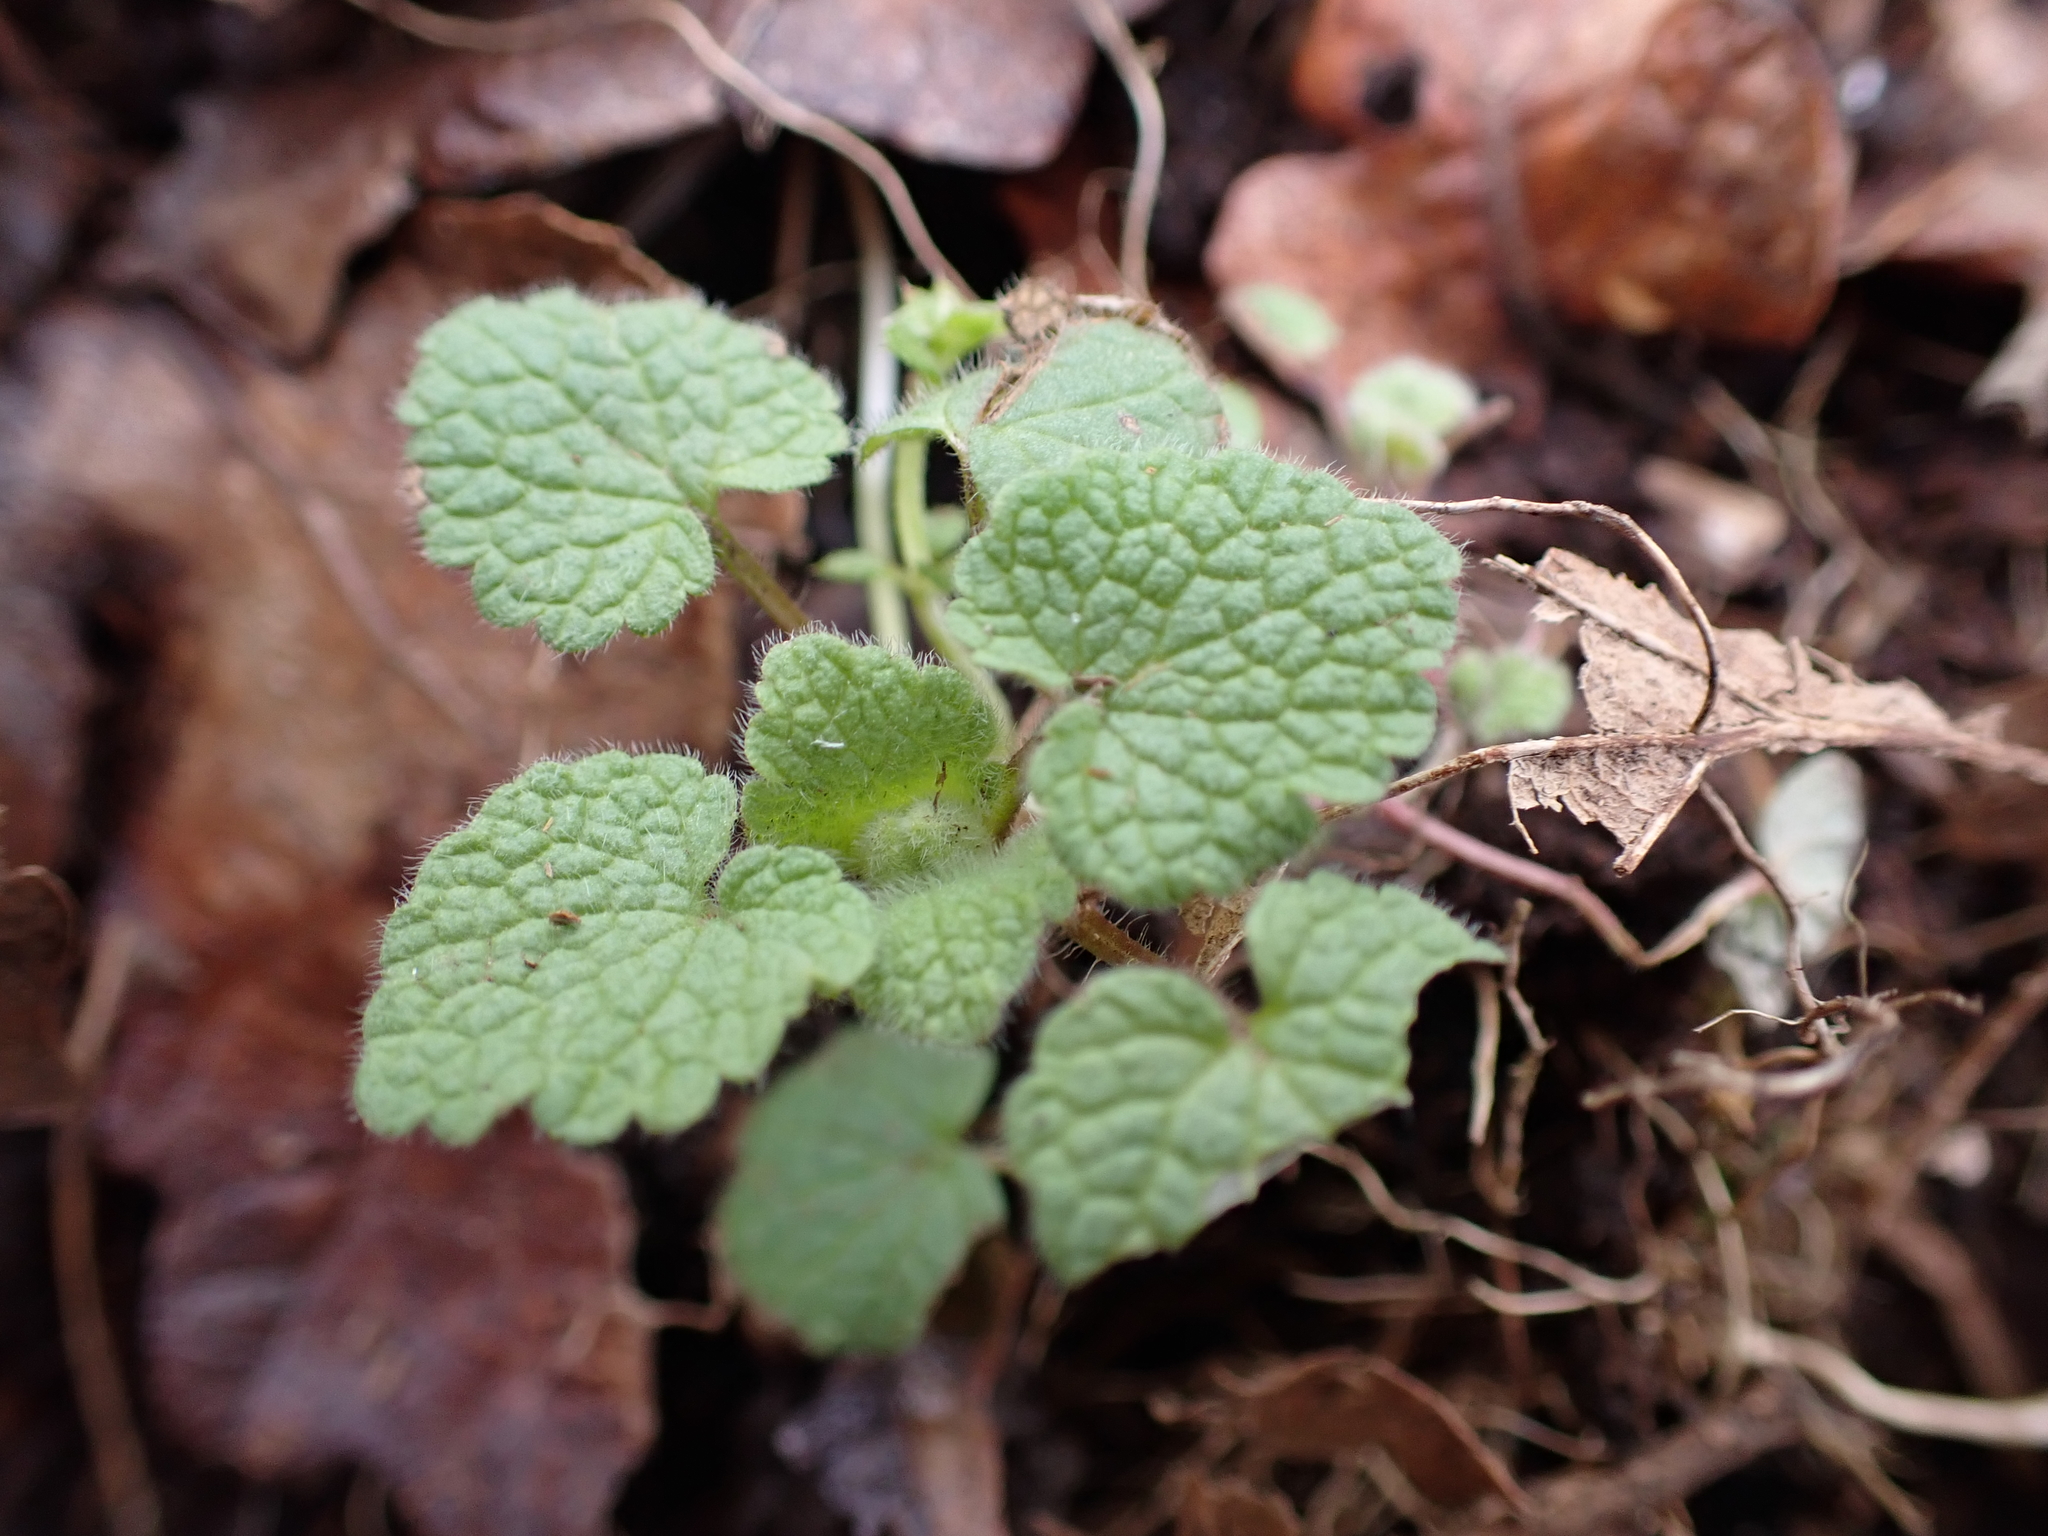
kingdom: Plantae
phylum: Tracheophyta
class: Magnoliopsida
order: Lamiales
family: Lamiaceae
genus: Lamium
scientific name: Lamium purpureum
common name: Red dead-nettle
